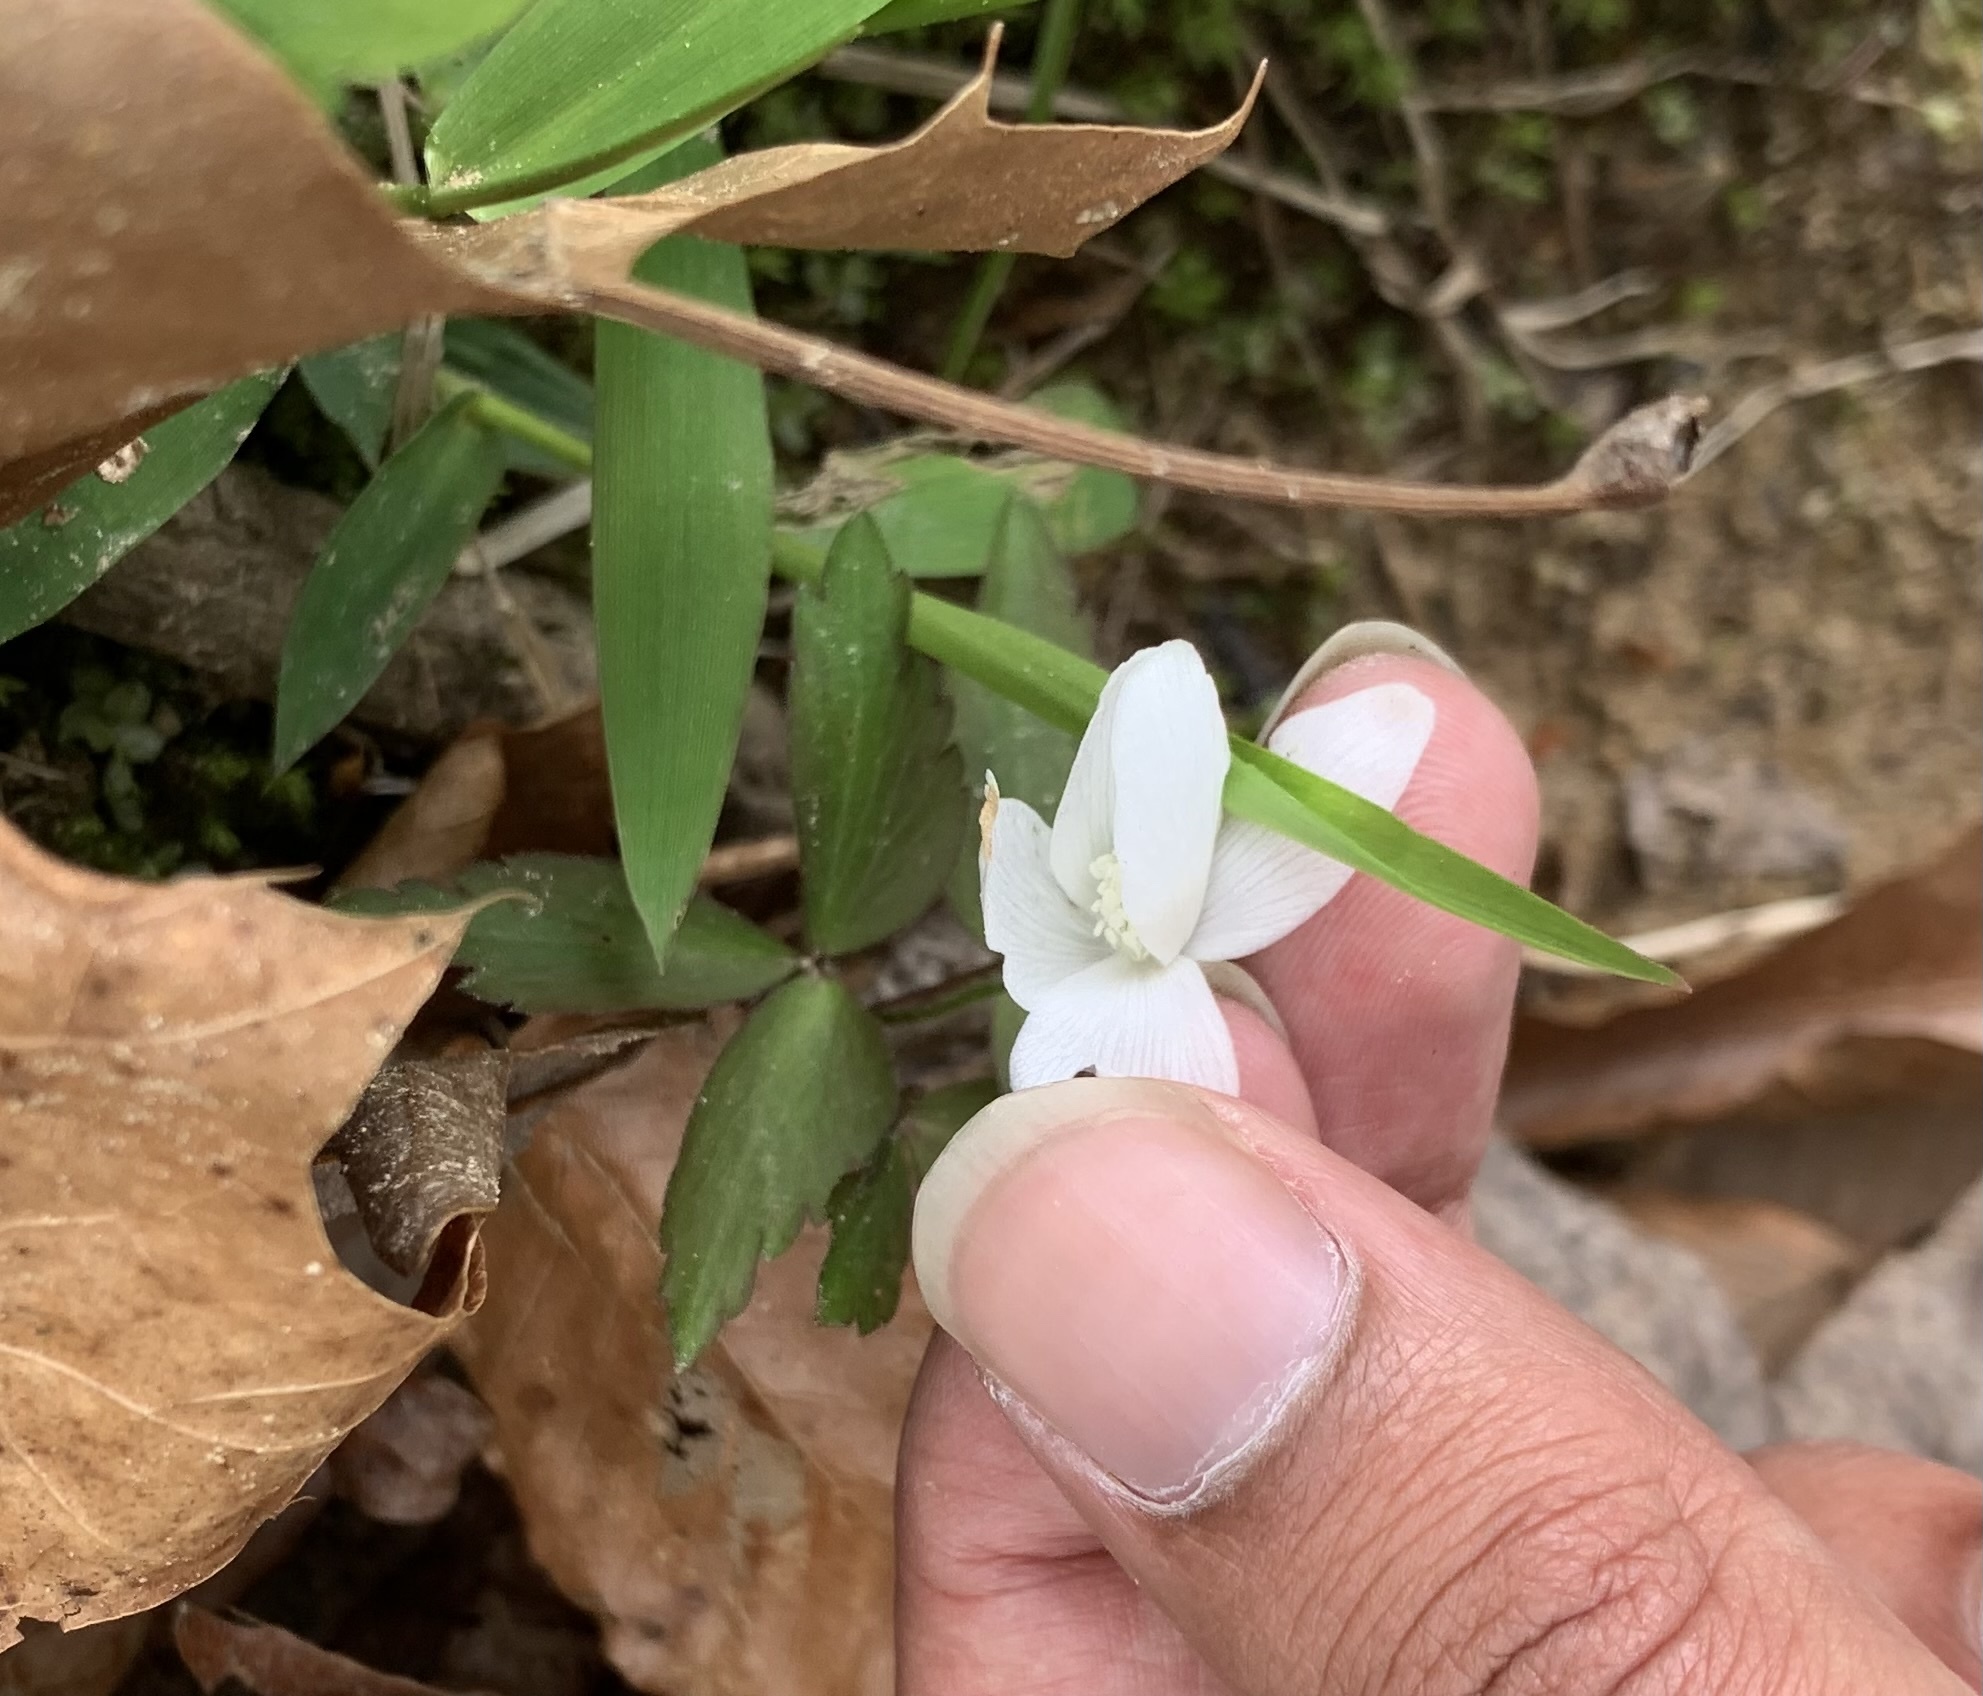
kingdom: Plantae
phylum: Tracheophyta
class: Magnoliopsida
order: Ranunculales
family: Ranunculaceae
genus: Anemone
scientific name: Anemone quinquefolia
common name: Wood anemone
